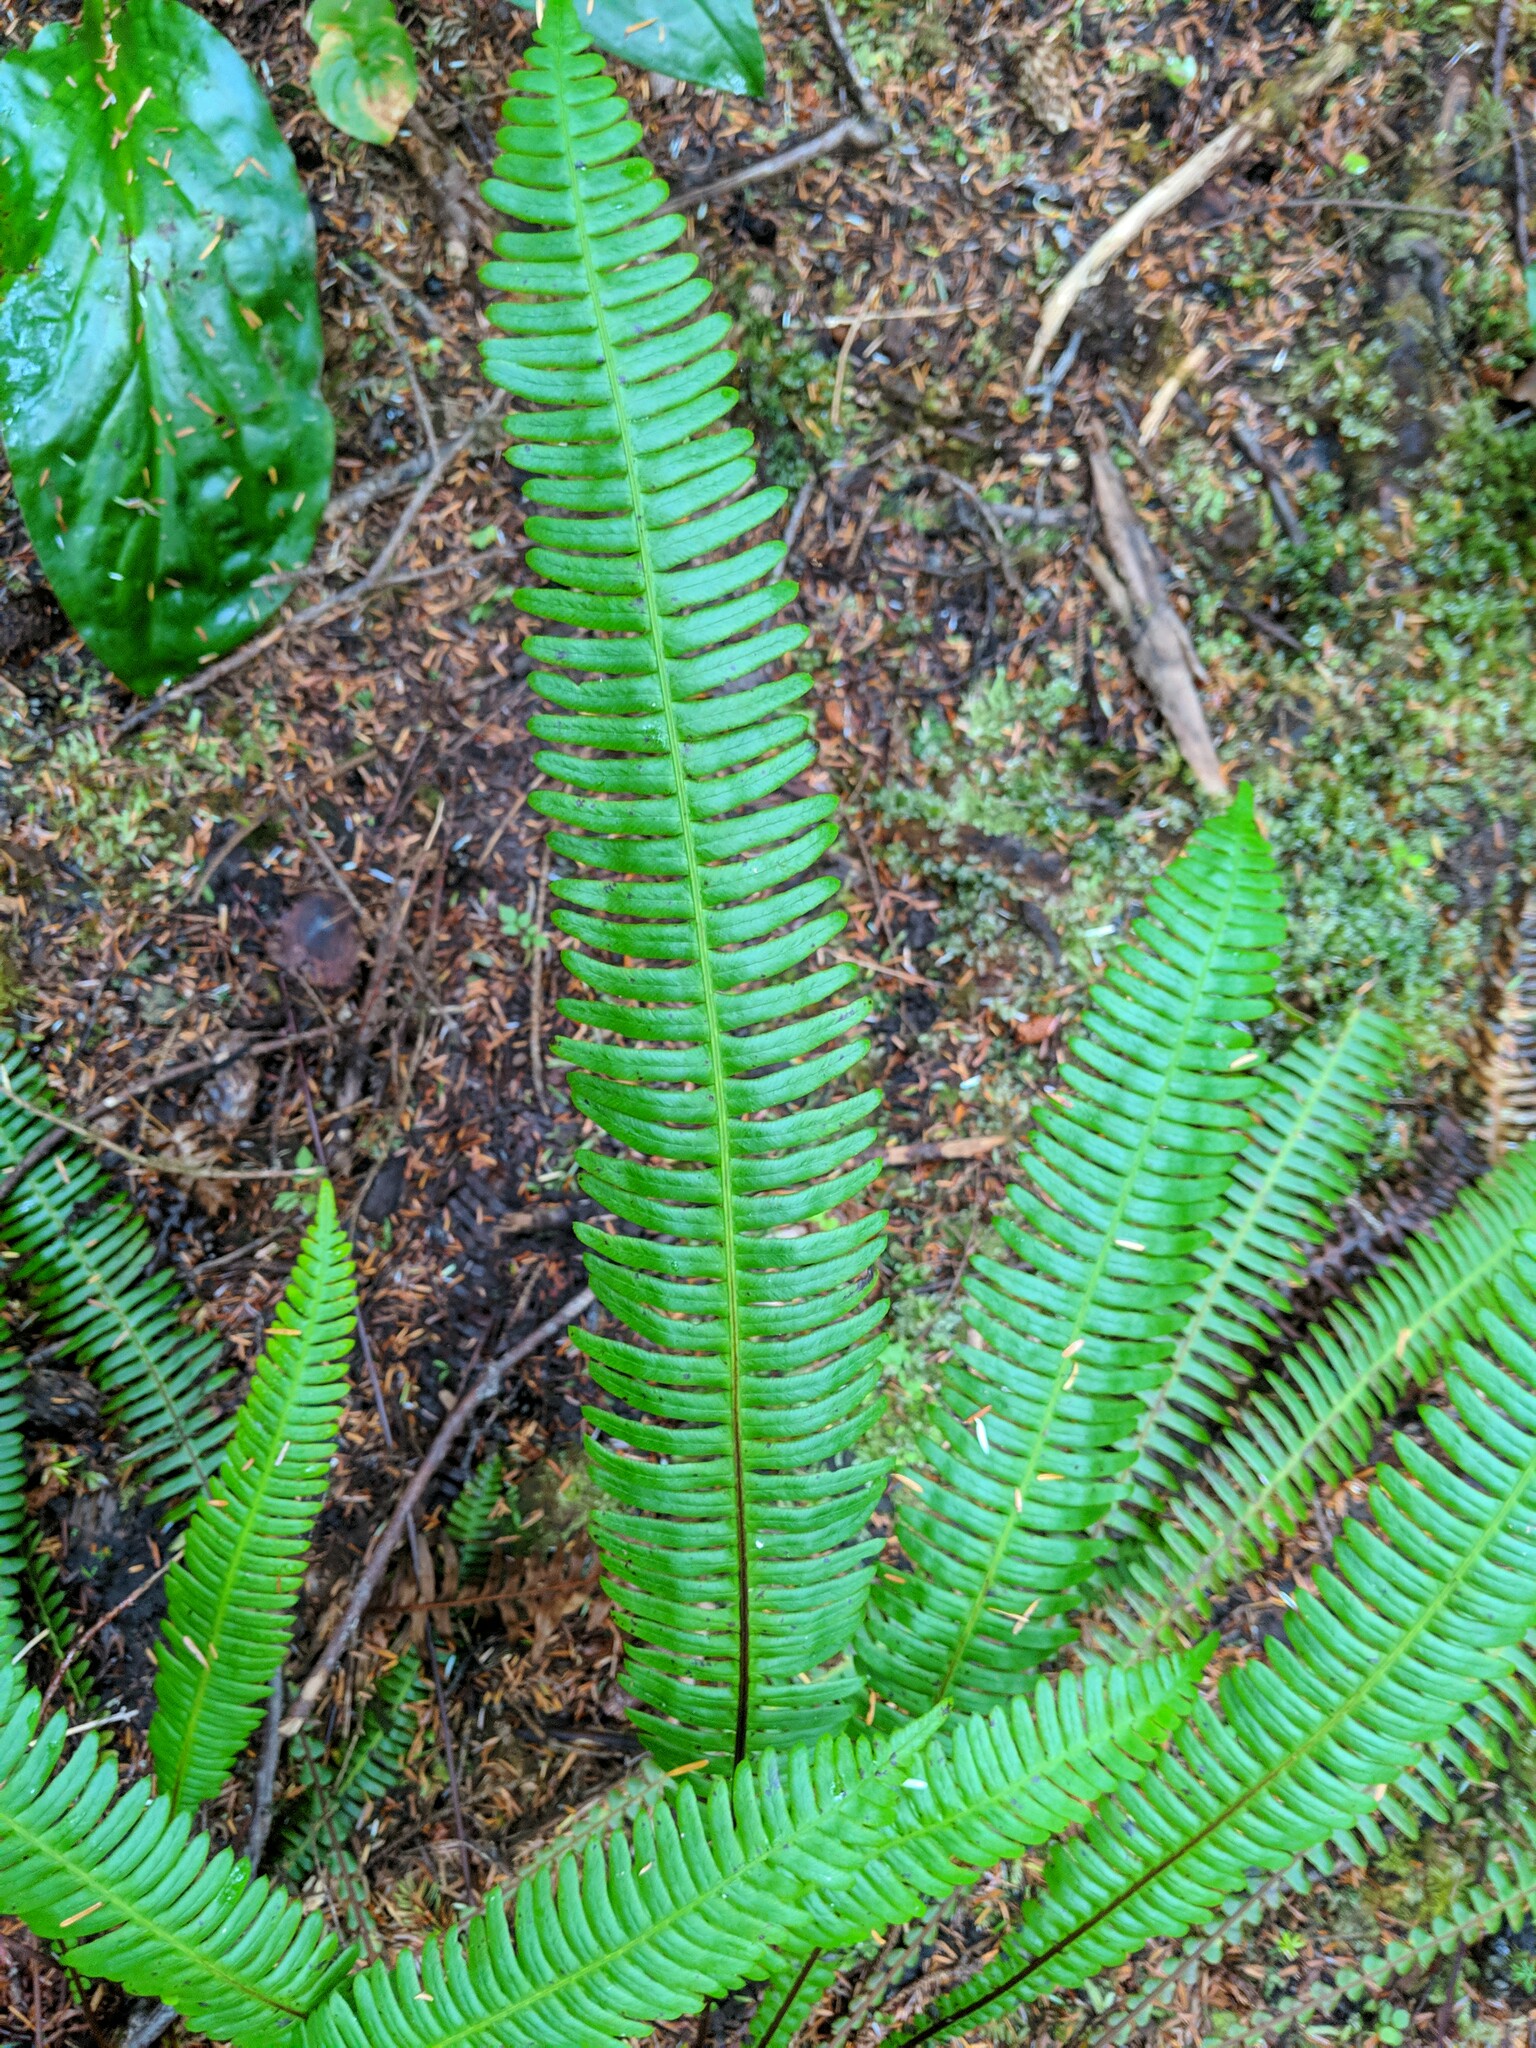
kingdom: Plantae
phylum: Tracheophyta
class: Polypodiopsida
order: Polypodiales
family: Blechnaceae
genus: Struthiopteris
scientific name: Struthiopteris spicant
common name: Deer fern
